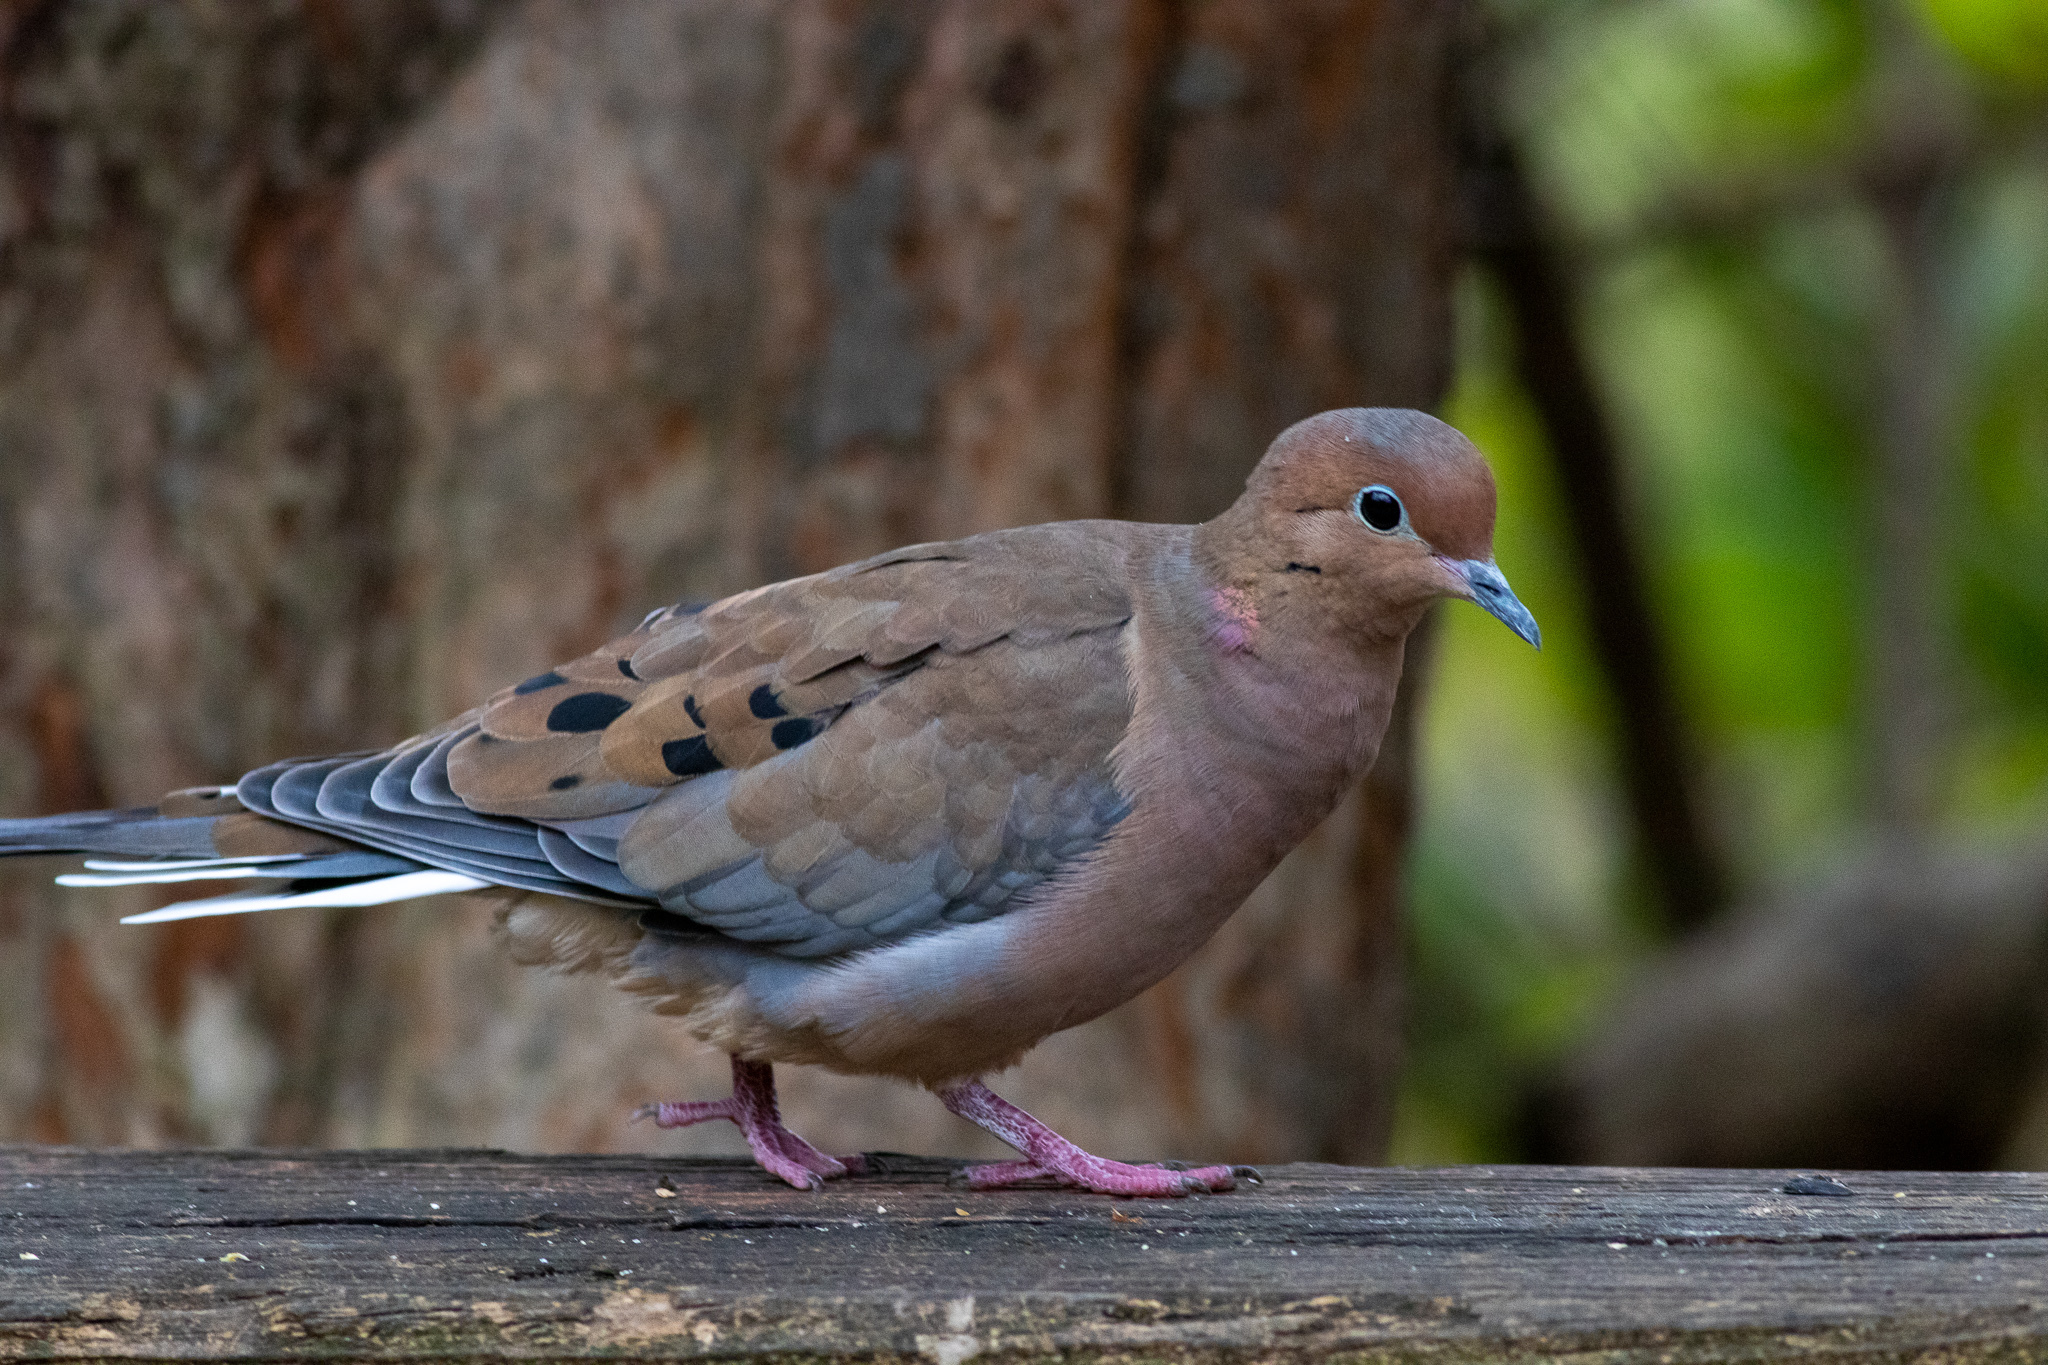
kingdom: Animalia
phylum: Chordata
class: Aves
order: Columbiformes
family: Columbidae
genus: Zenaida
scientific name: Zenaida macroura
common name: Mourning dove
